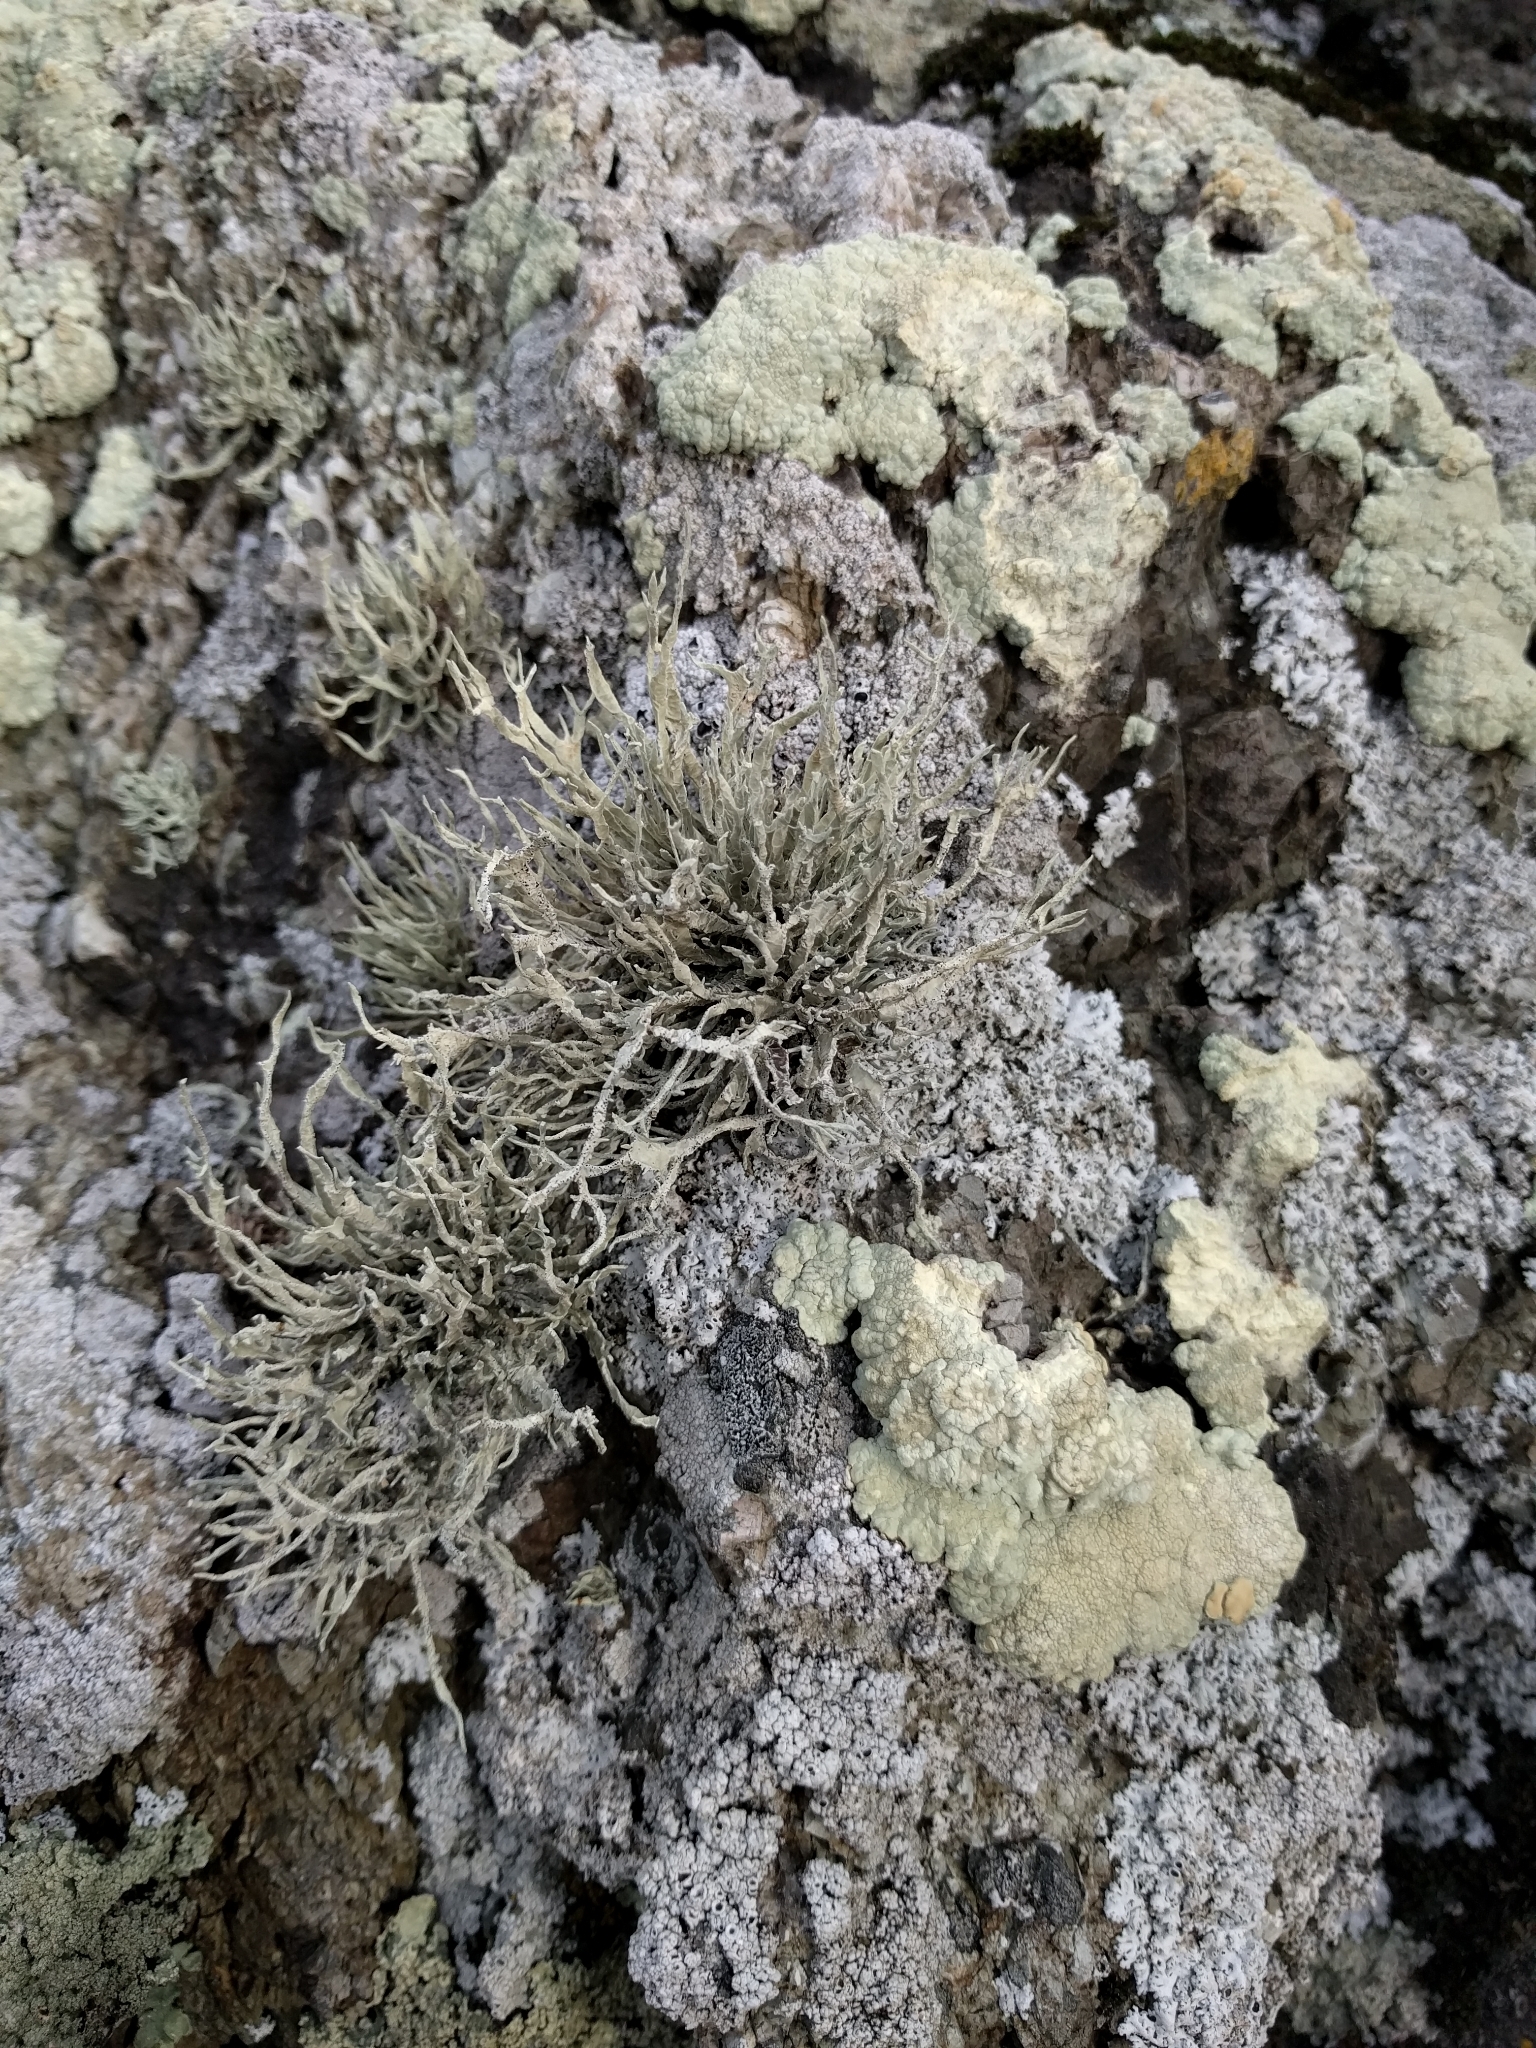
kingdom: Fungi
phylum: Ascomycota
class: Lecanoromycetes
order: Lecanorales
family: Ramalinaceae
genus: Niebla
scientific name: Niebla homalea
